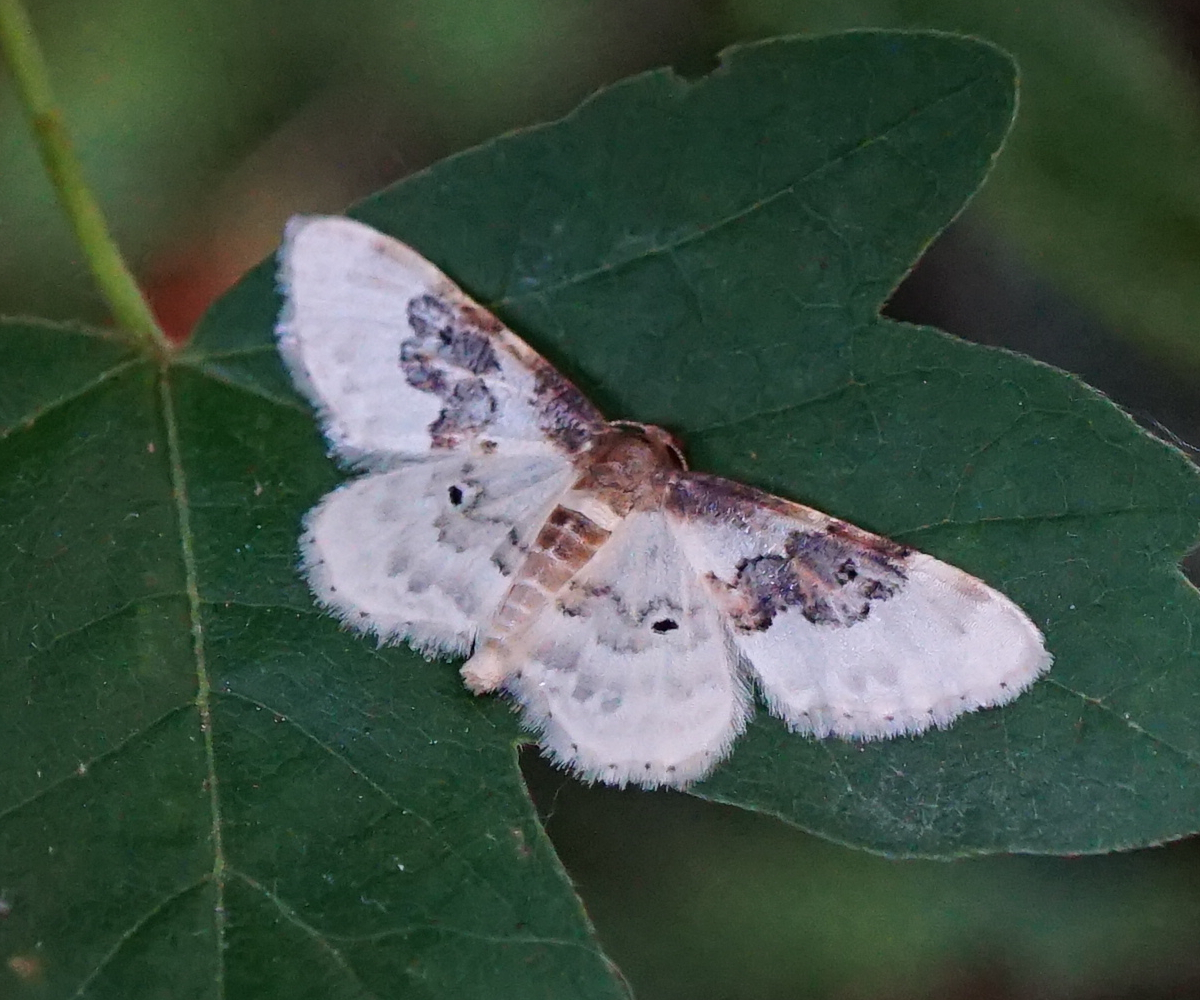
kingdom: Animalia
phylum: Arthropoda
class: Insecta
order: Lepidoptera
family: Geometridae
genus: Idaea
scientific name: Idaea rusticata
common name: Least carpet
